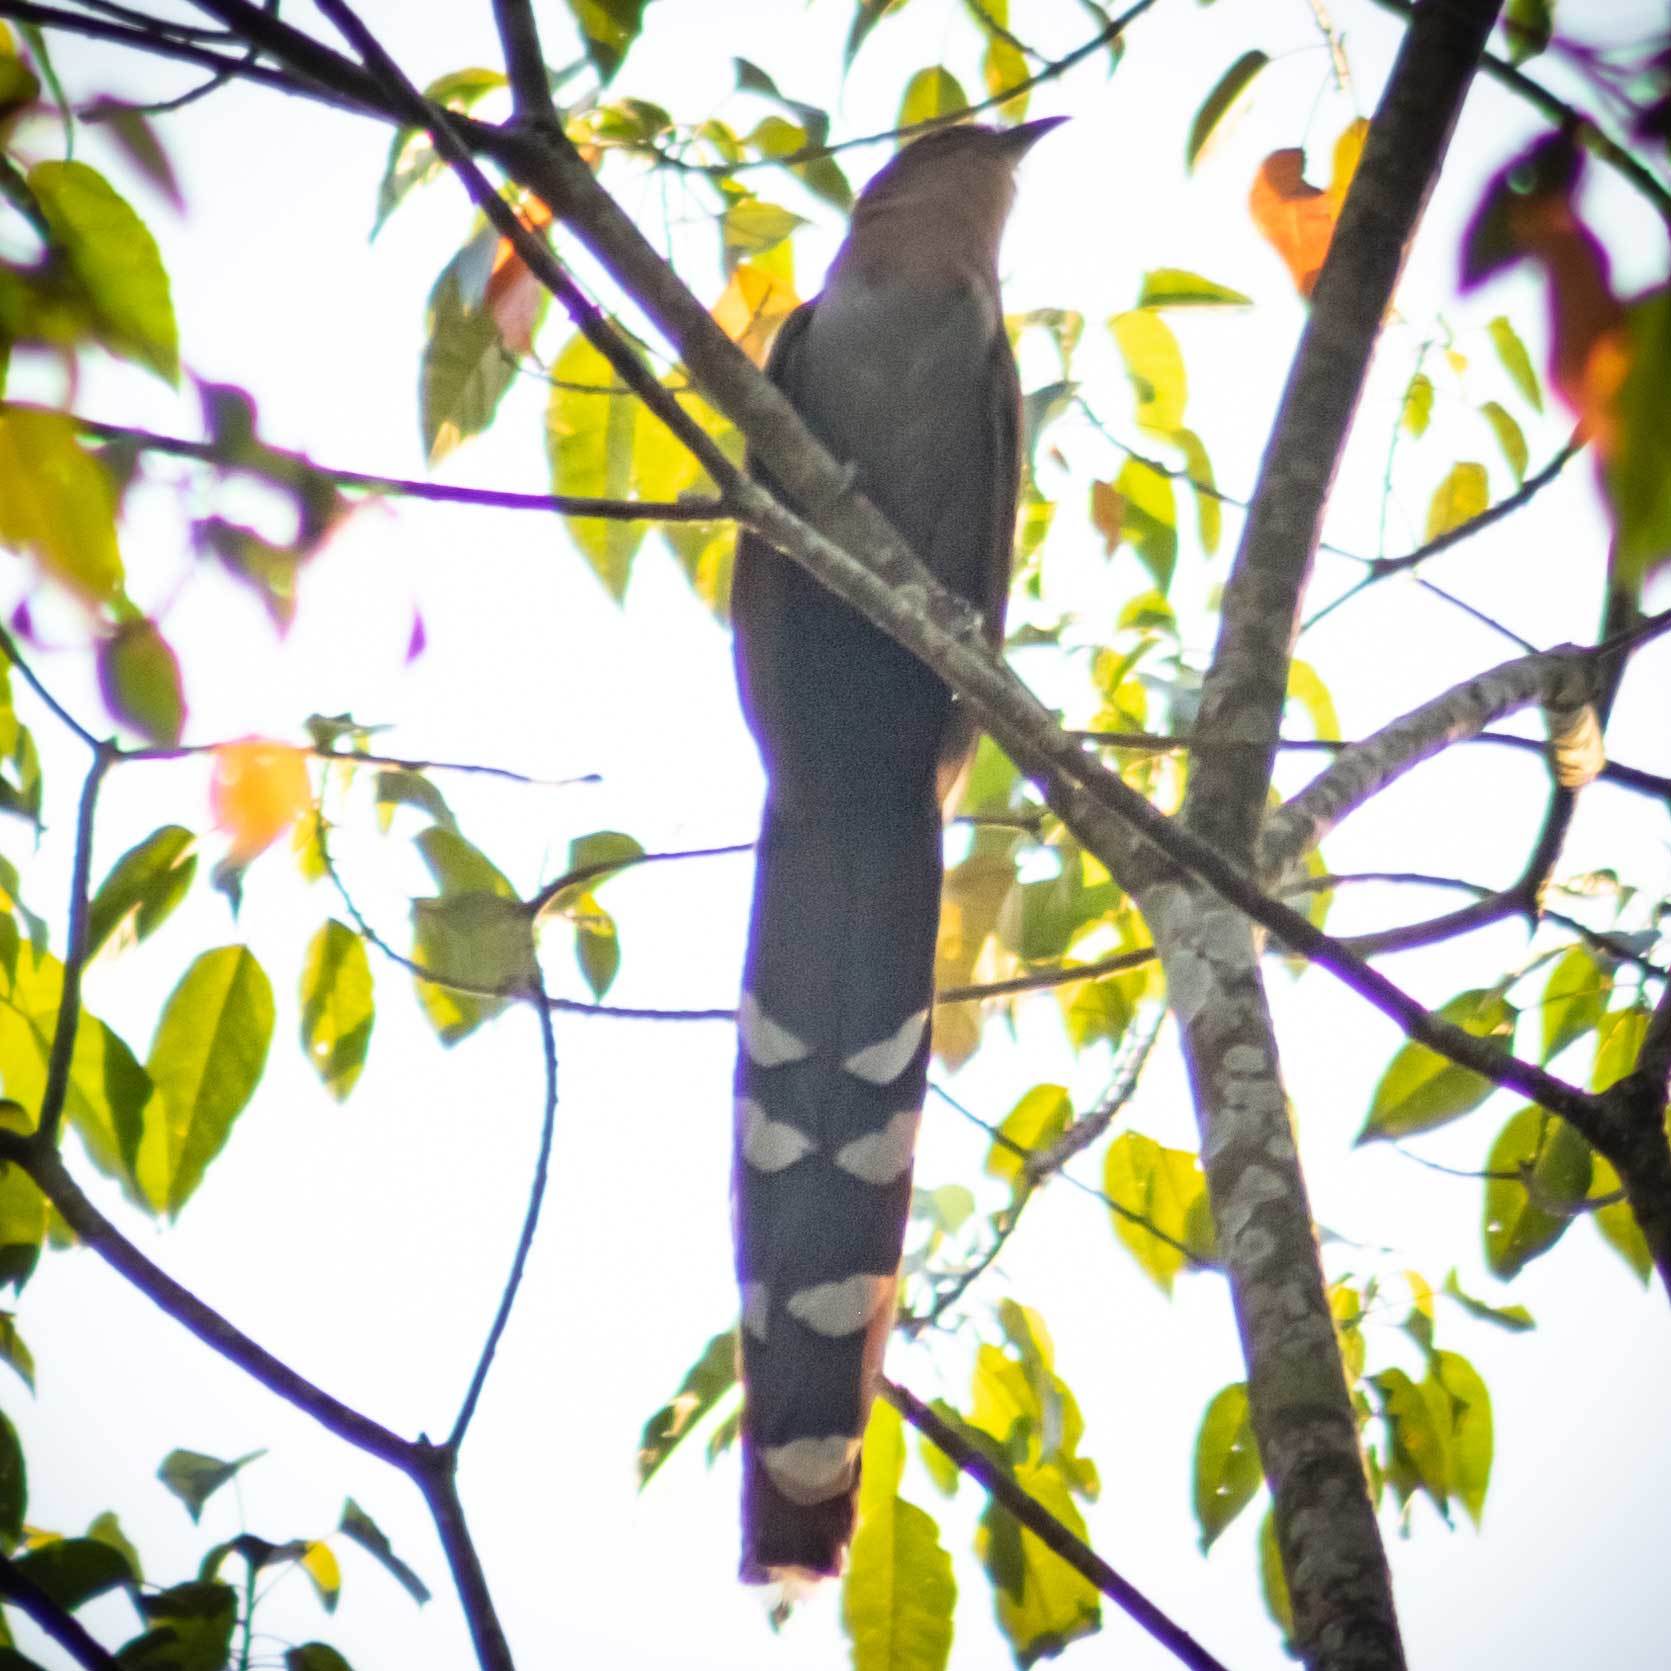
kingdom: Animalia
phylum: Chordata
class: Aves
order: Cuculiformes
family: Cuculidae
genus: Piaya
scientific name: Piaya cayana
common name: Squirrel cuckoo
